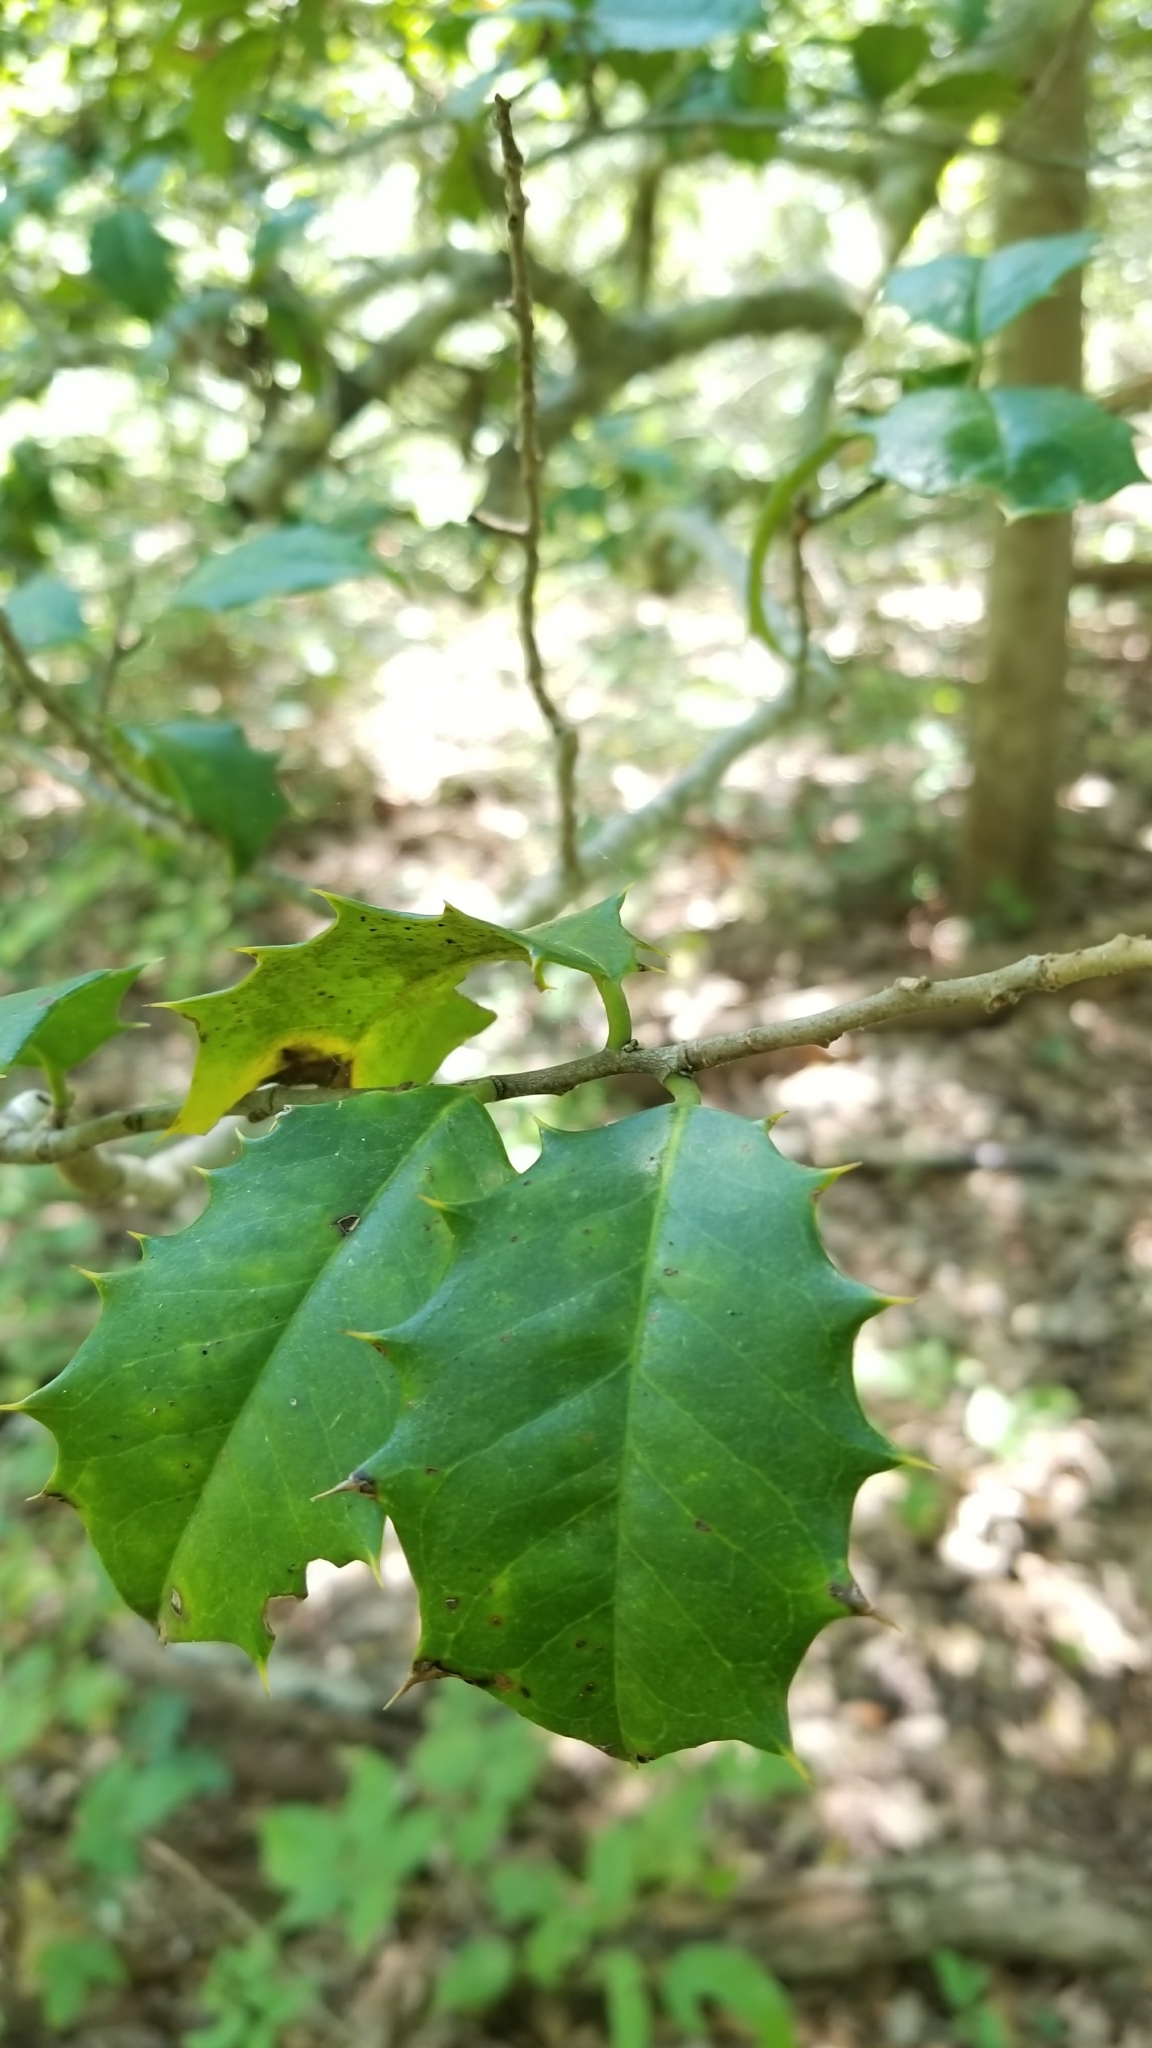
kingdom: Plantae
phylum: Tracheophyta
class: Magnoliopsida
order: Aquifoliales
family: Aquifoliaceae
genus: Ilex
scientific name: Ilex opaca
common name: American holly
